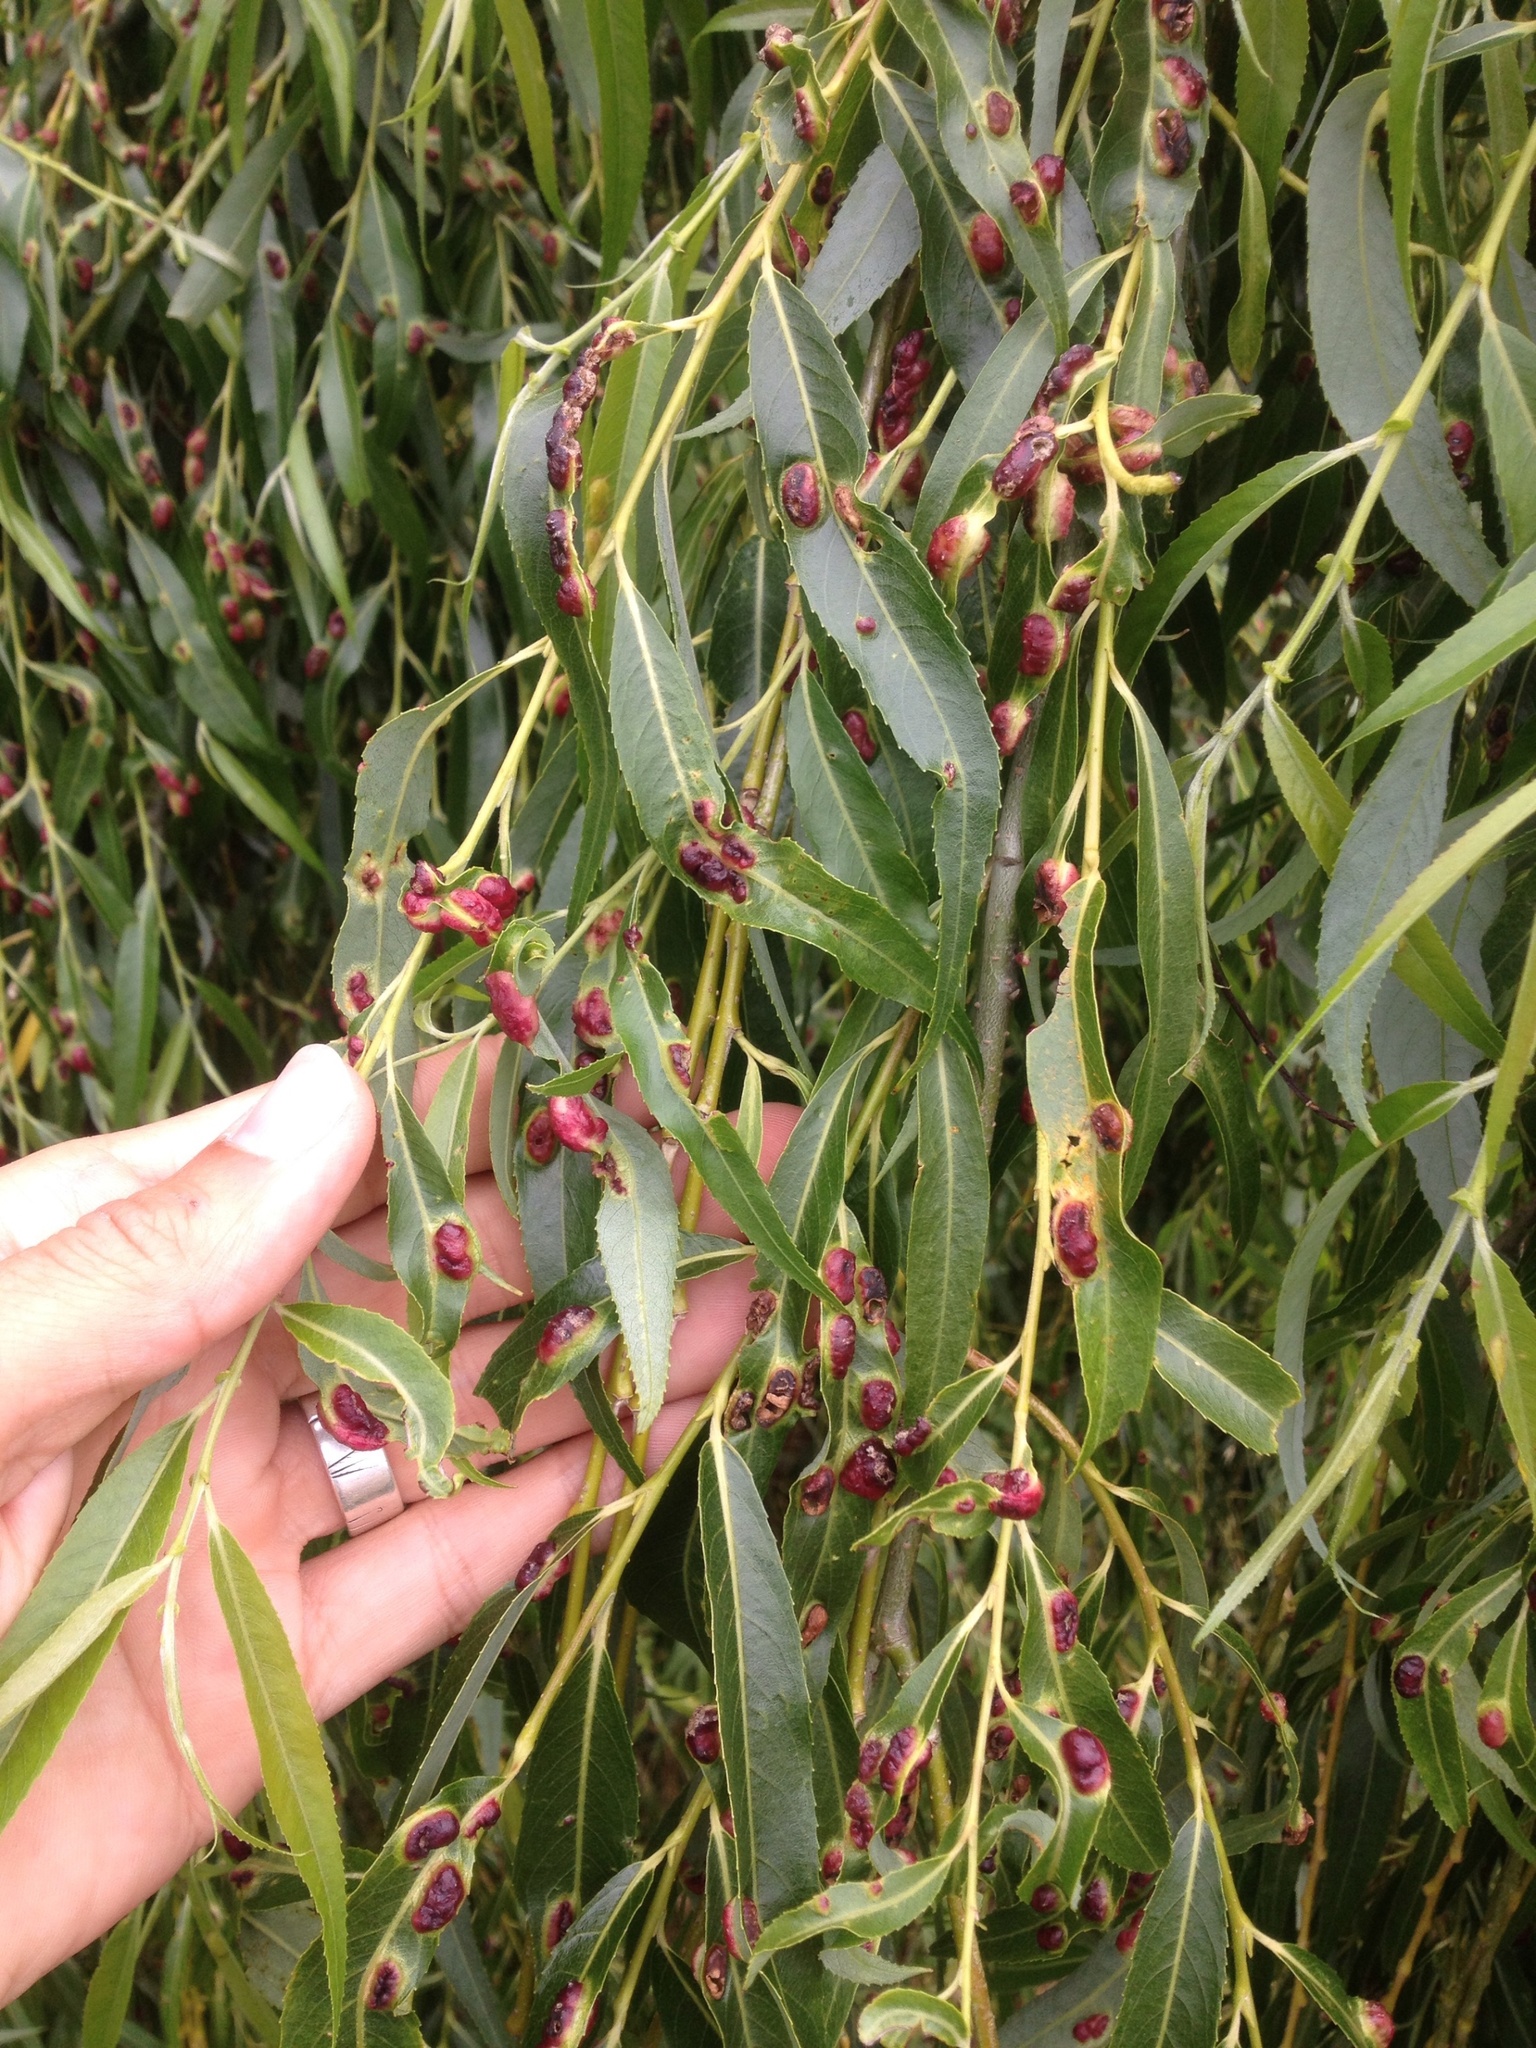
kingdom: Animalia
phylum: Arthropoda
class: Insecta
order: Hymenoptera
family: Tenthredinidae
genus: Pontania
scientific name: Pontania proxima
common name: Common sawfly
